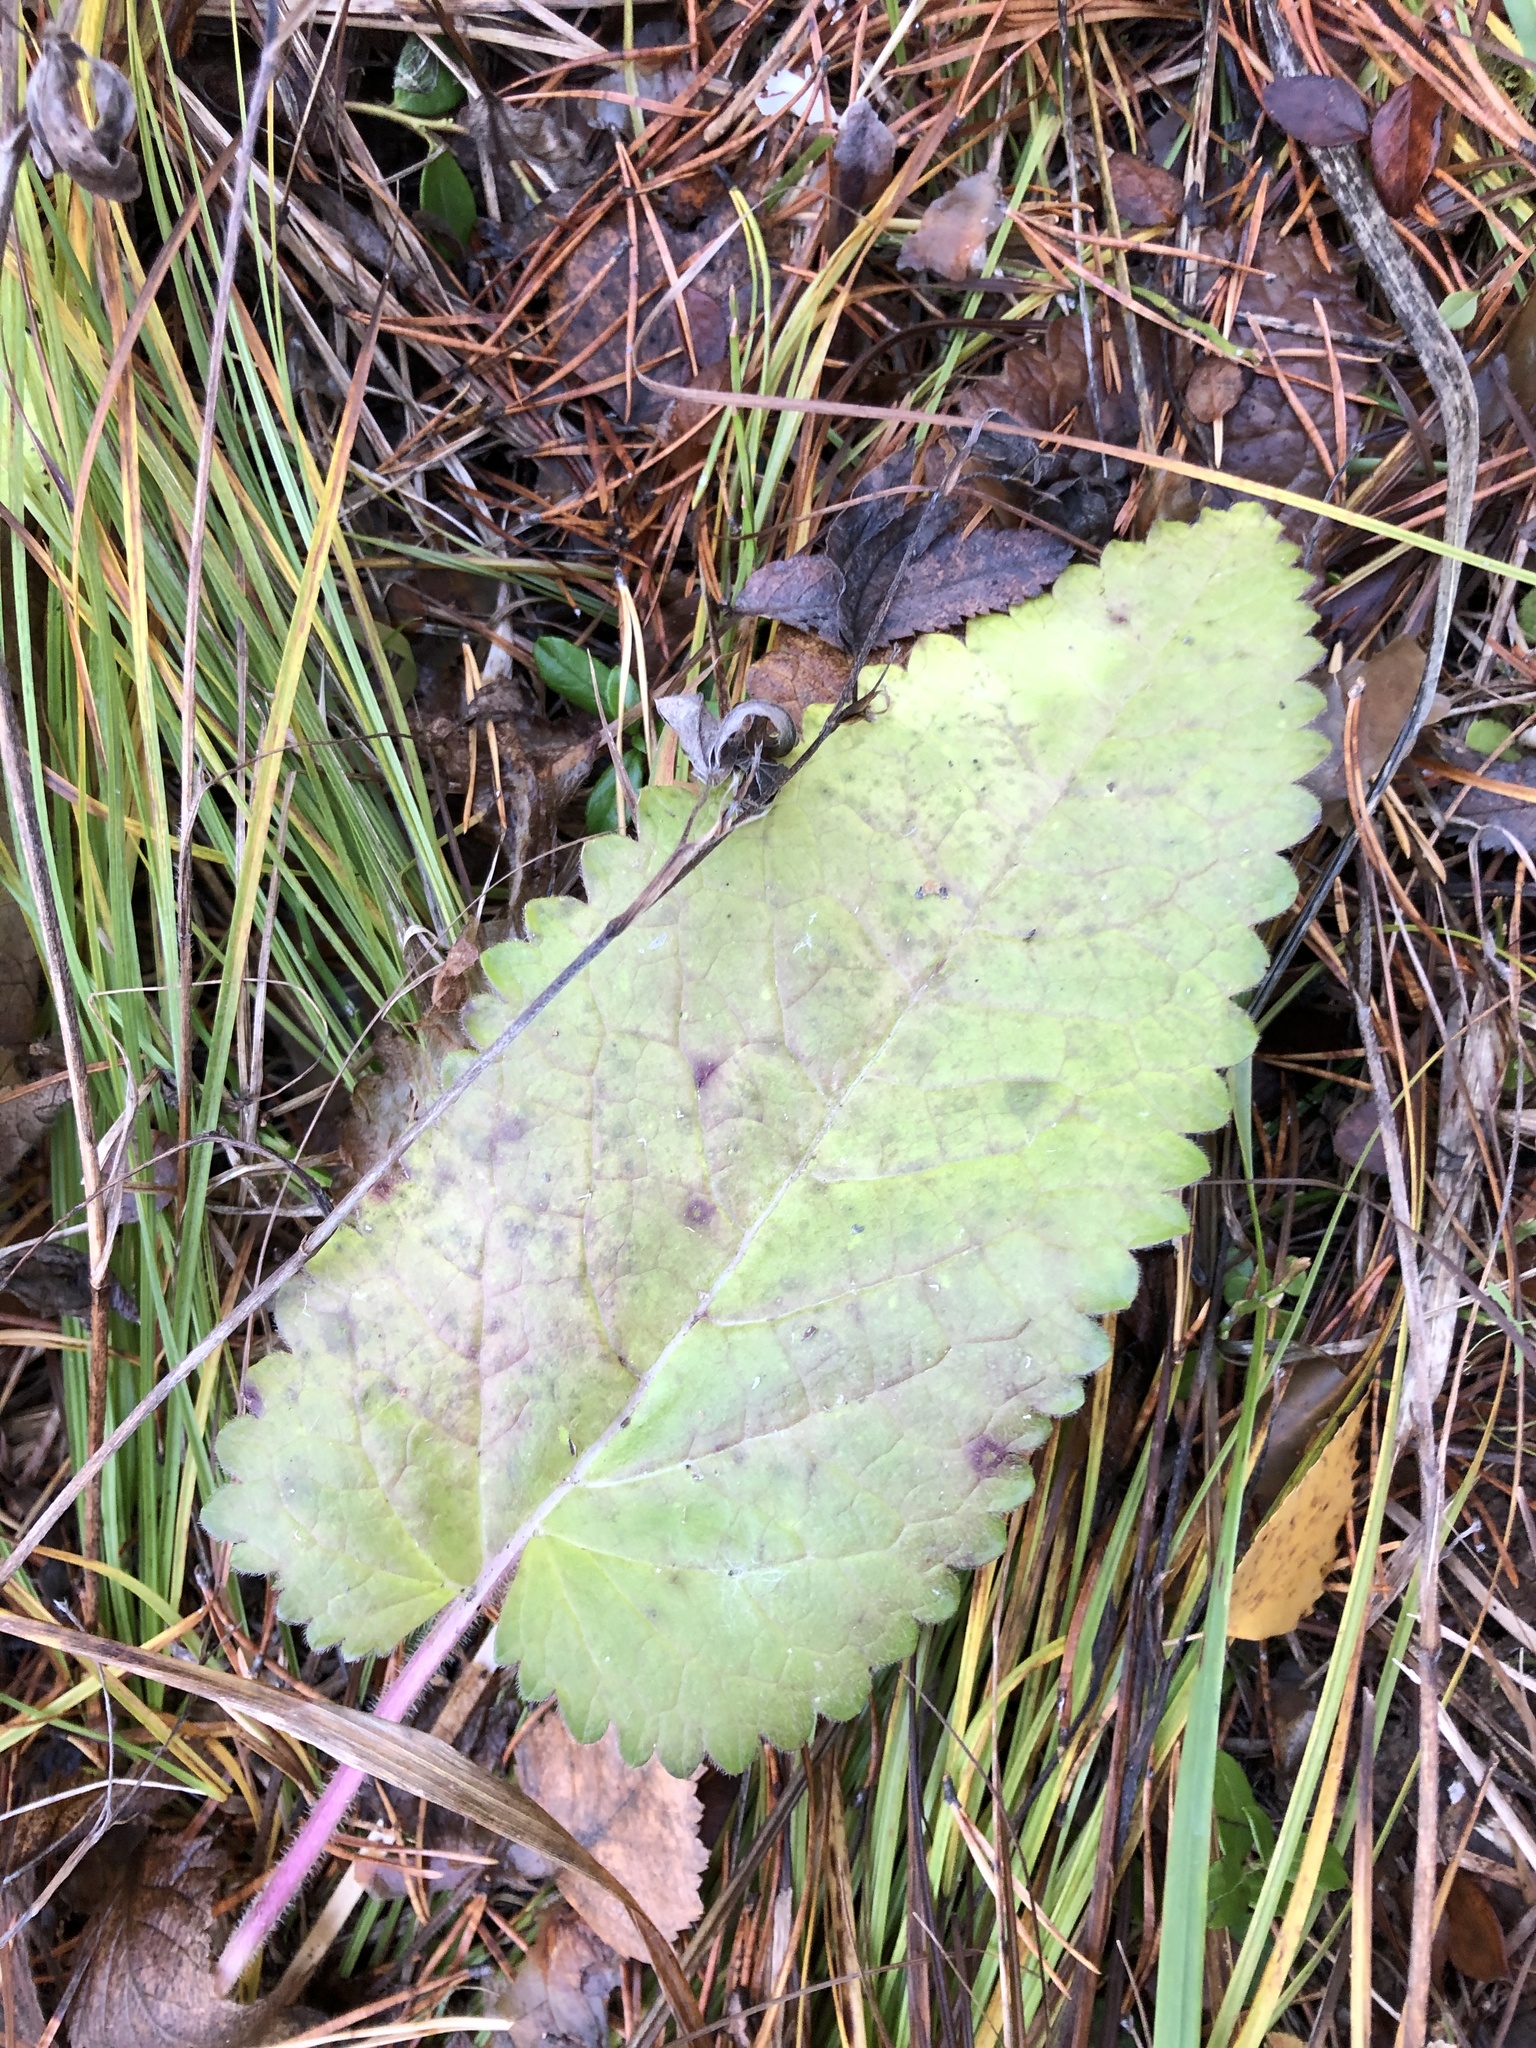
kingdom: Plantae
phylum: Tracheophyta
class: Magnoliopsida
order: Lamiales
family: Lamiaceae
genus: Betonica
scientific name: Betonica officinalis
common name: Bishop's-wort
